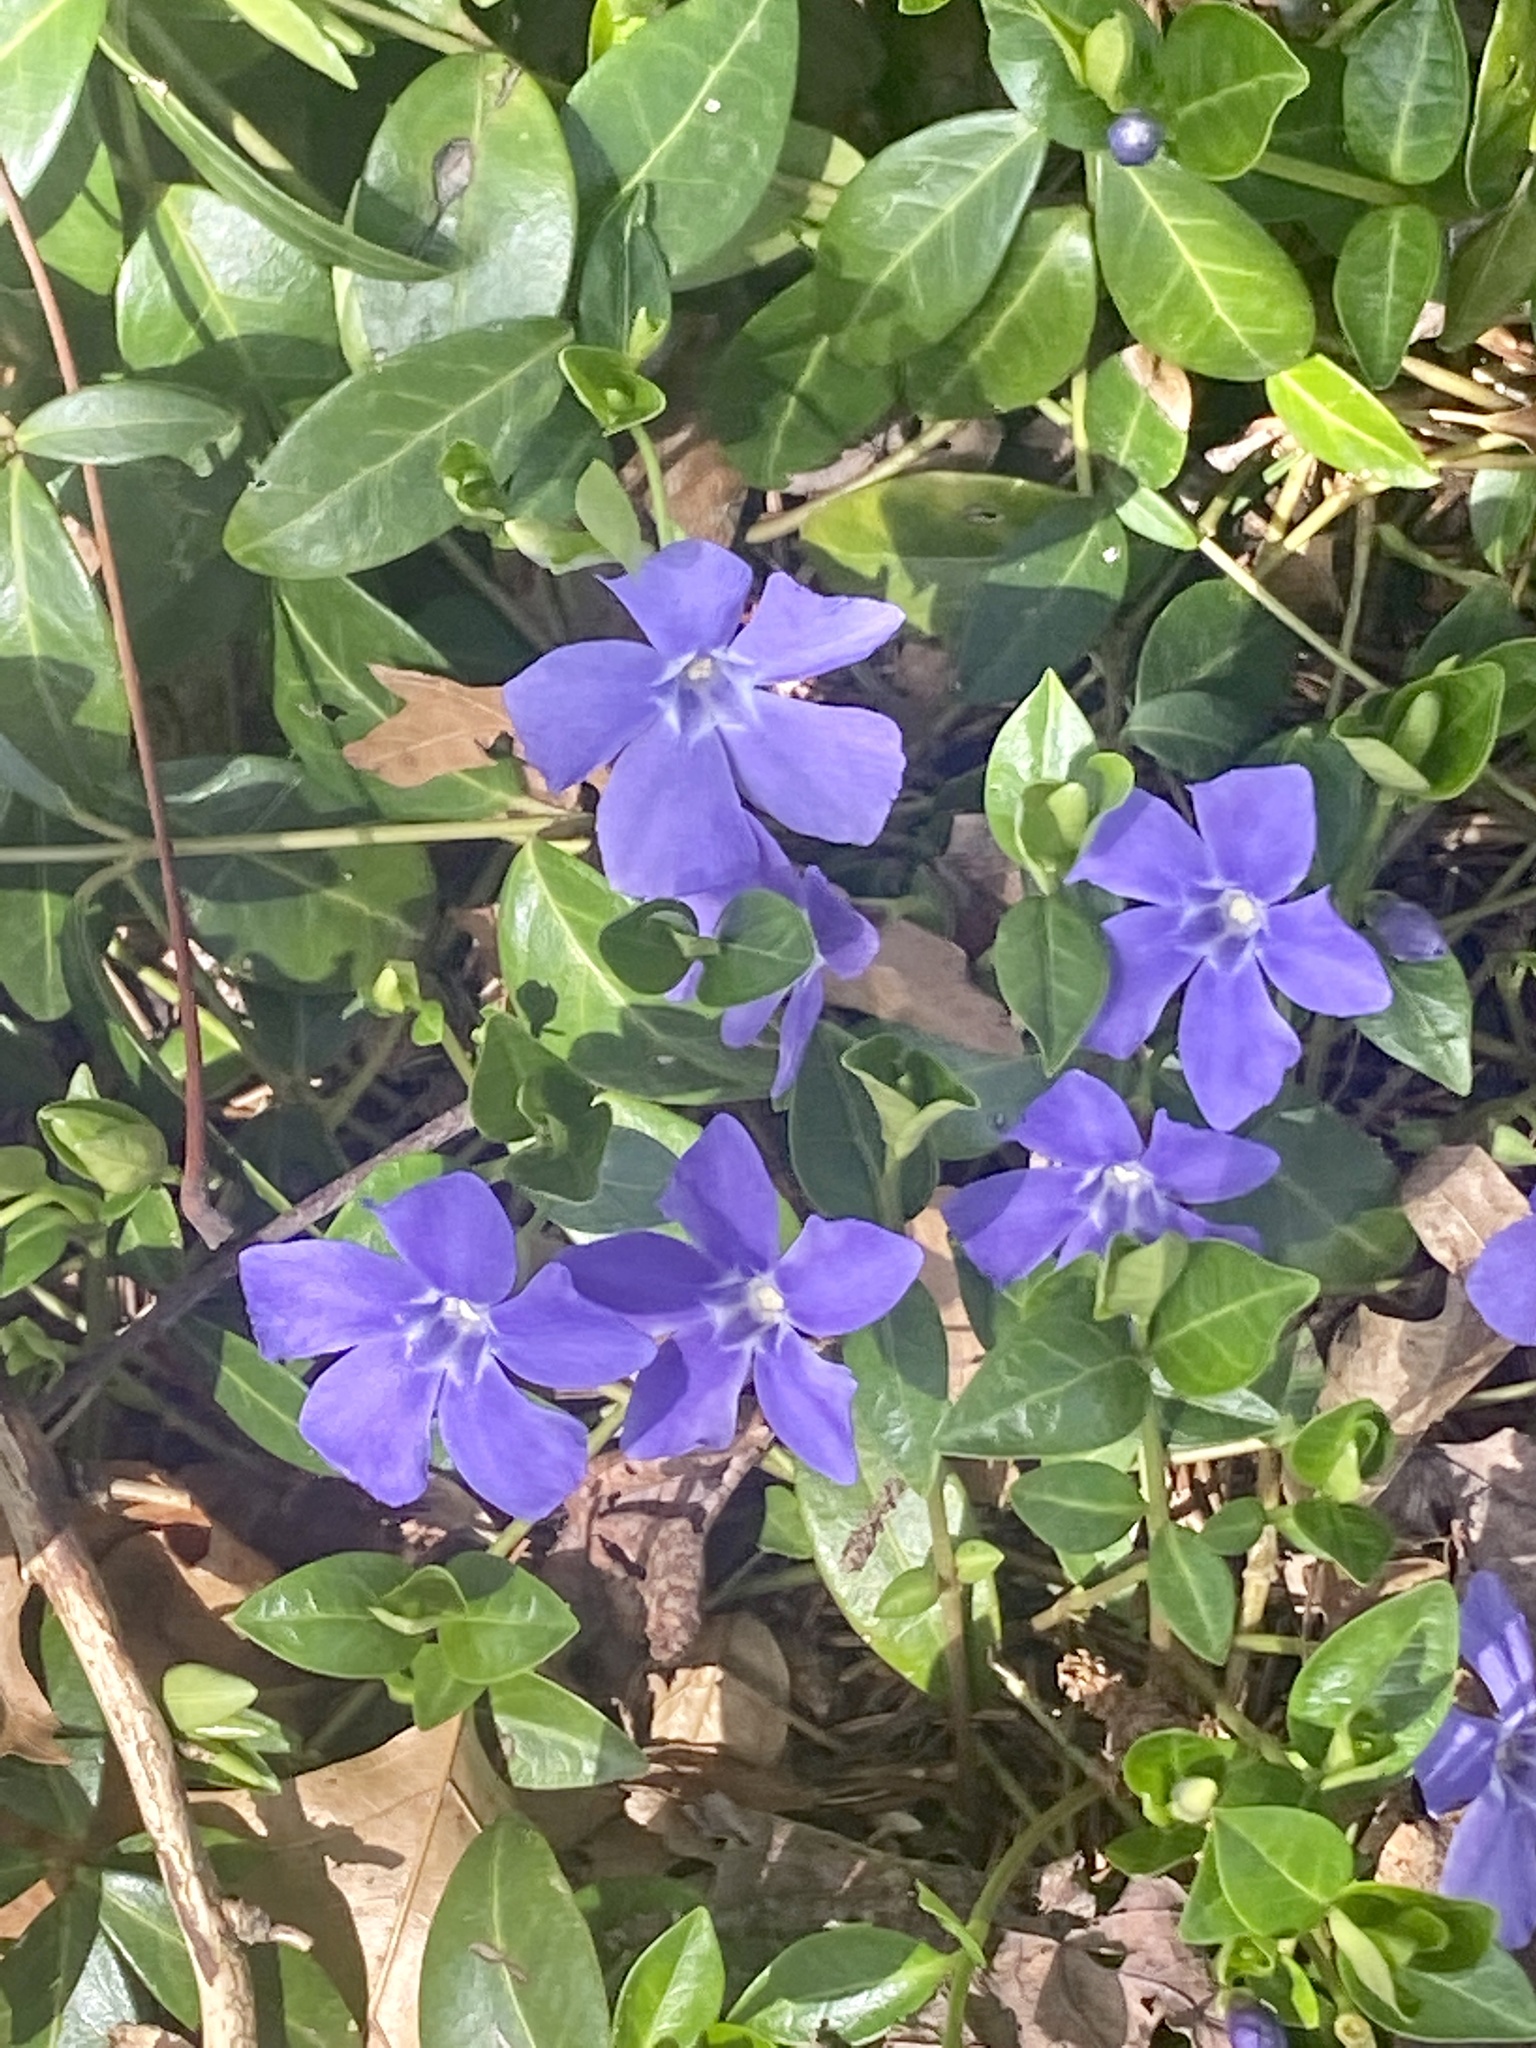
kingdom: Plantae
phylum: Tracheophyta
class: Magnoliopsida
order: Gentianales
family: Apocynaceae
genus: Vinca
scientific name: Vinca minor
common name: Lesser periwinkle
